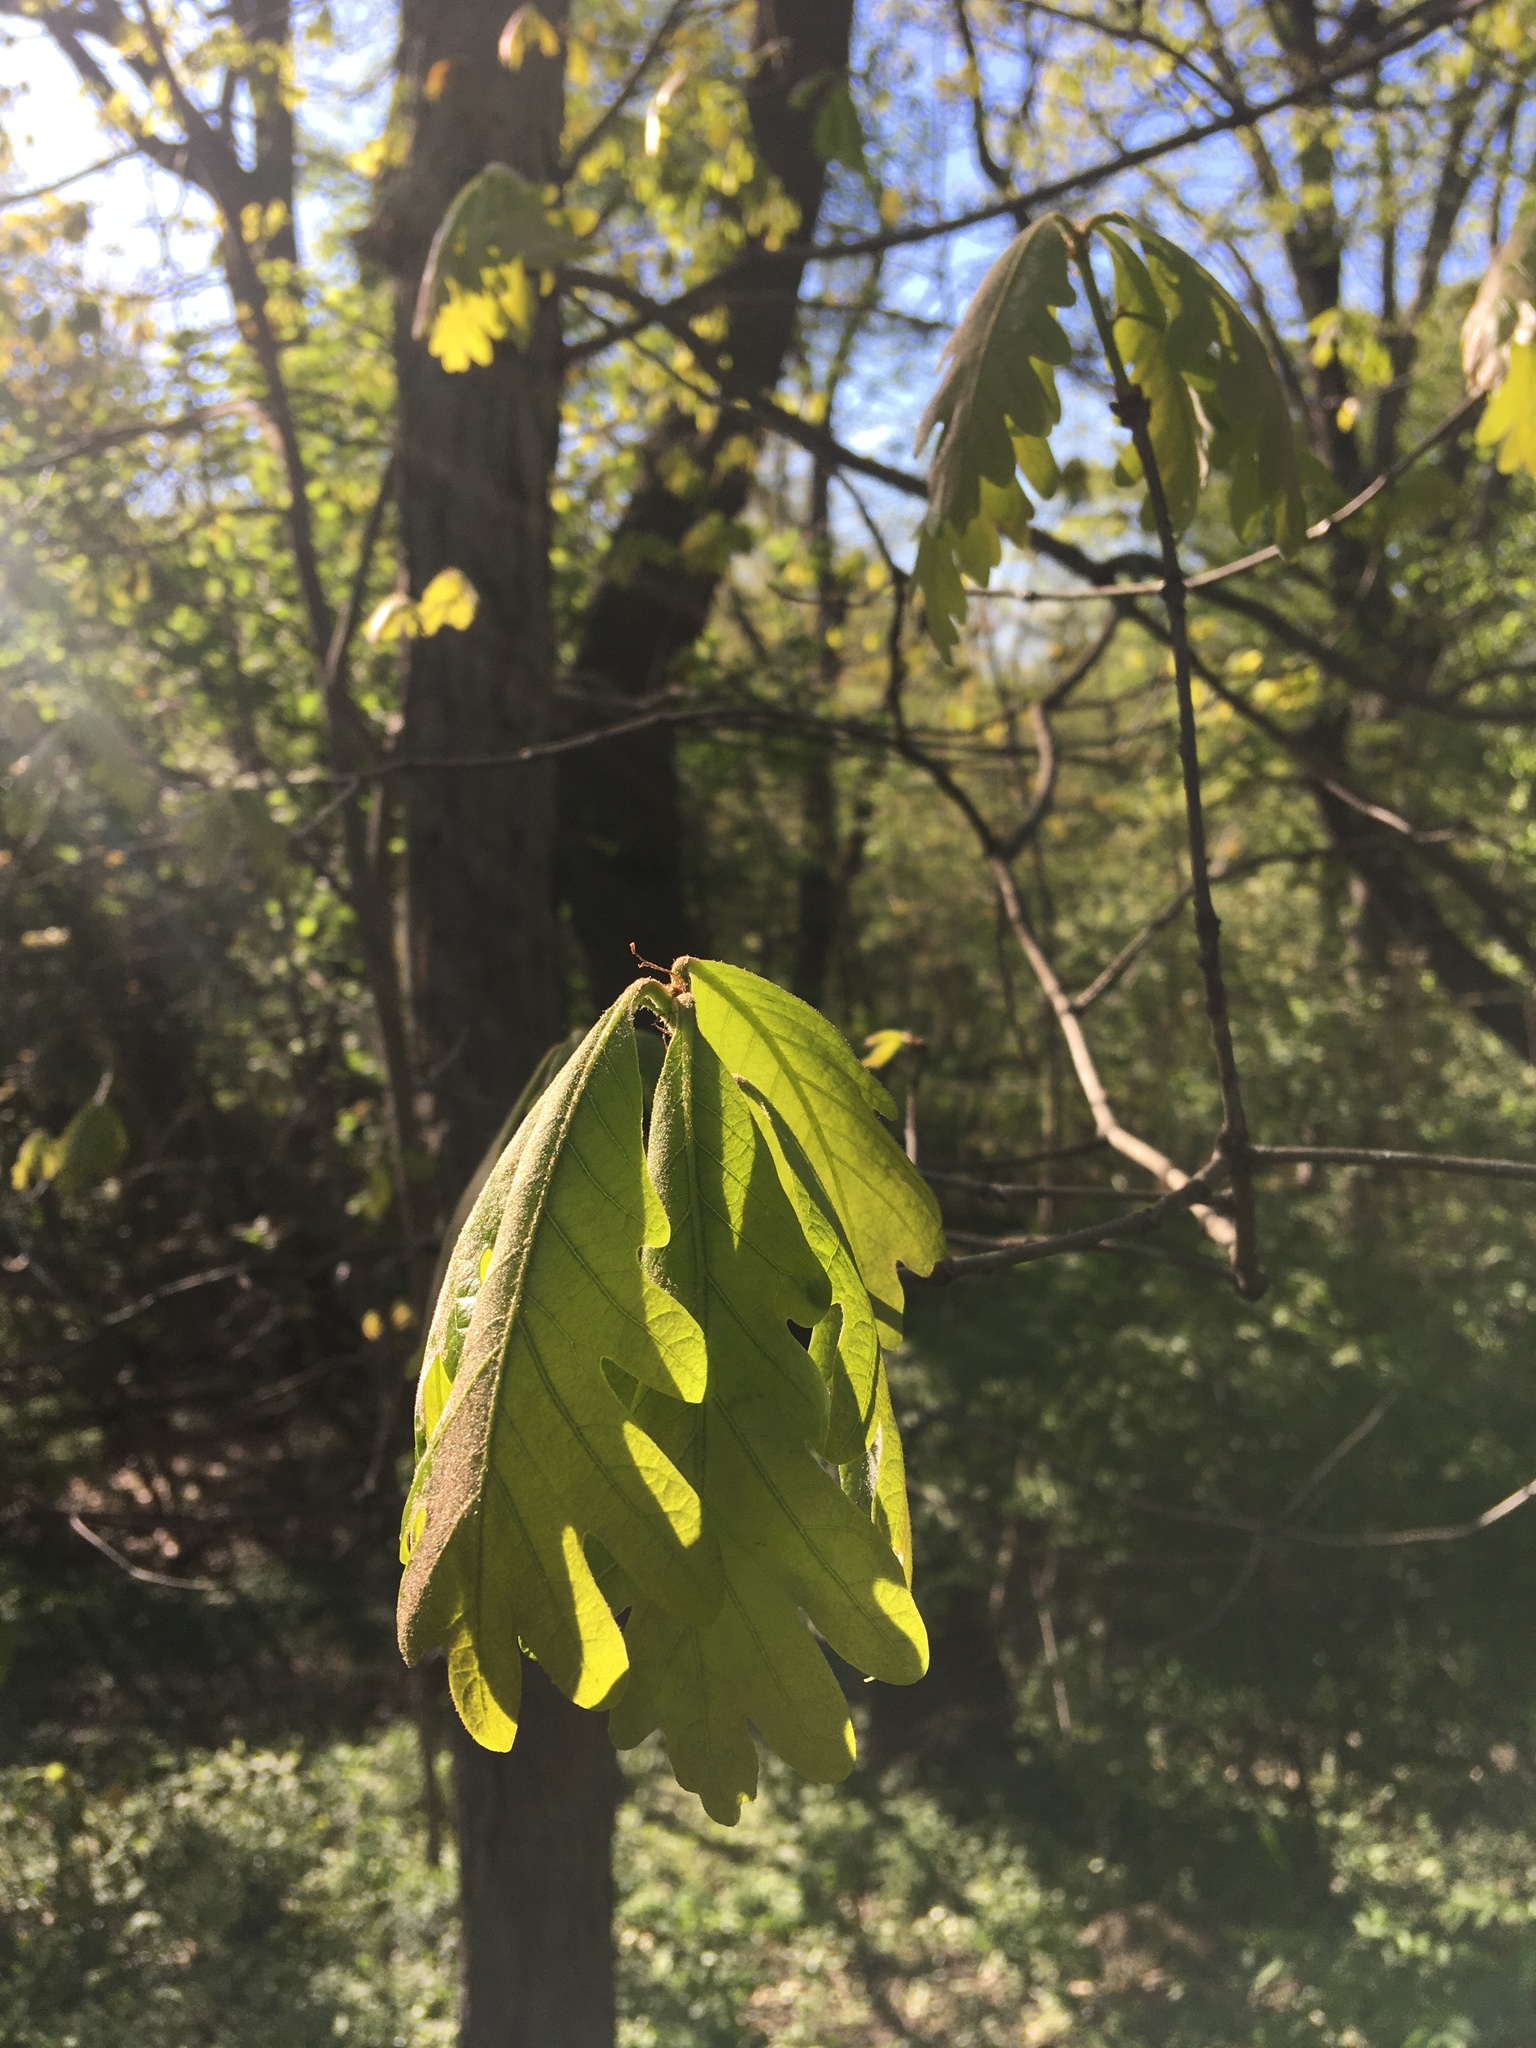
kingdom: Plantae
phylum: Tracheophyta
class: Magnoliopsida
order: Fagales
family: Fagaceae
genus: Quercus
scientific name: Quercus alba
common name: White oak
